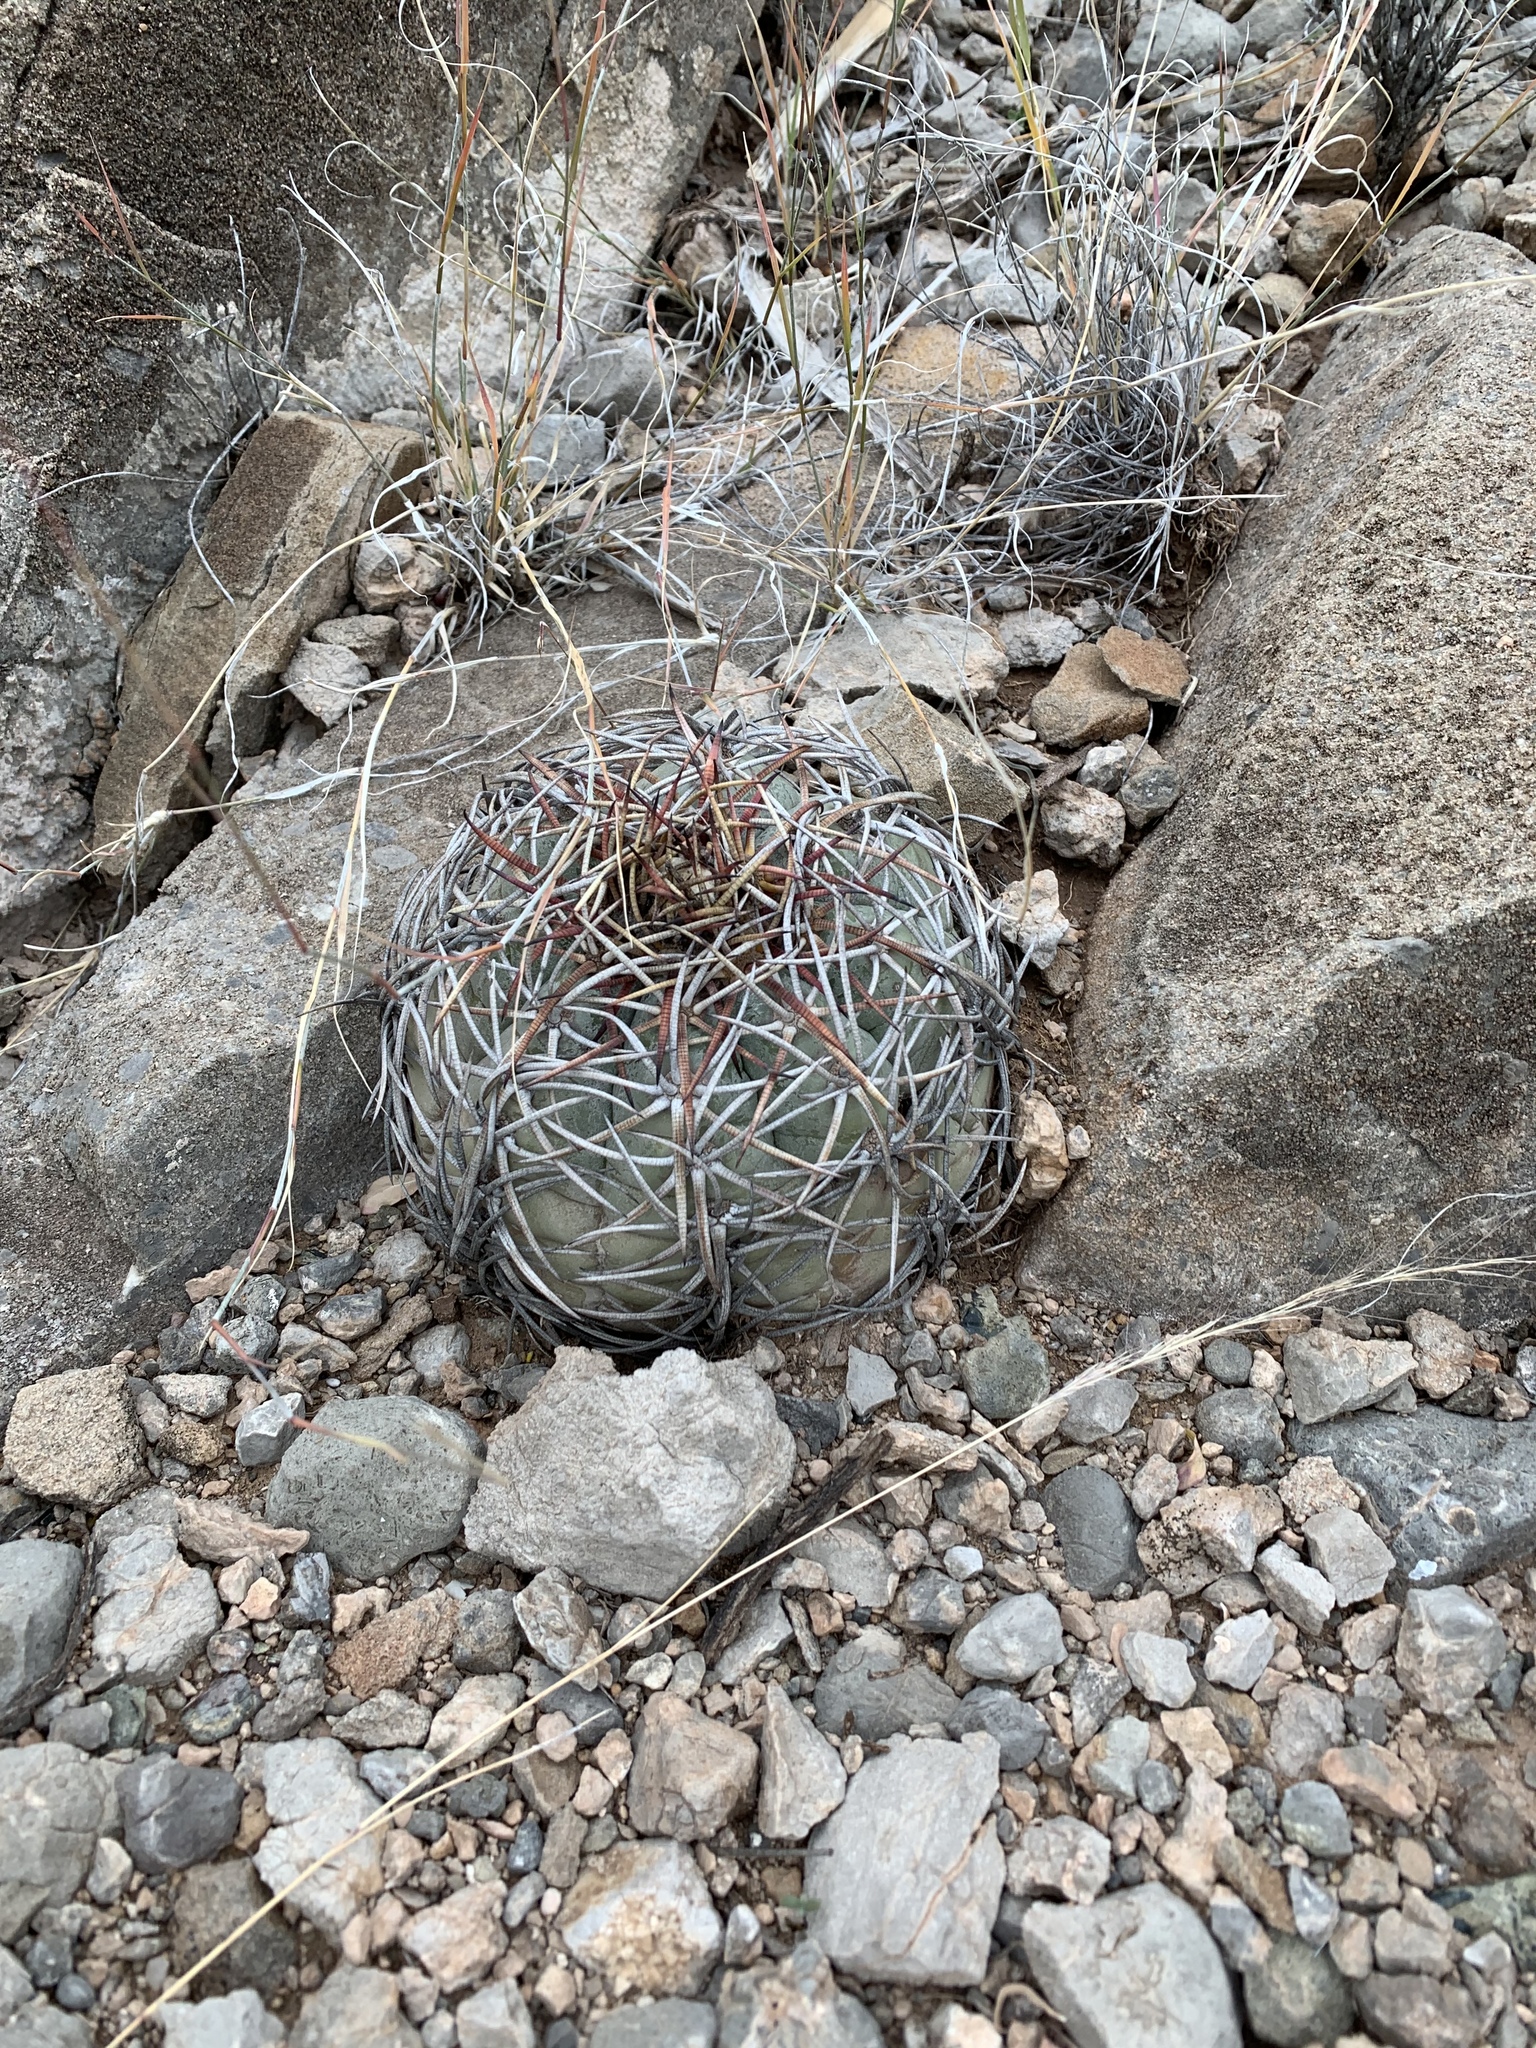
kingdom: Plantae
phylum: Tracheophyta
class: Magnoliopsida
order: Caryophyllales
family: Cactaceae
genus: Echinocactus
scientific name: Echinocactus horizonthalonius
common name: Devilshead
